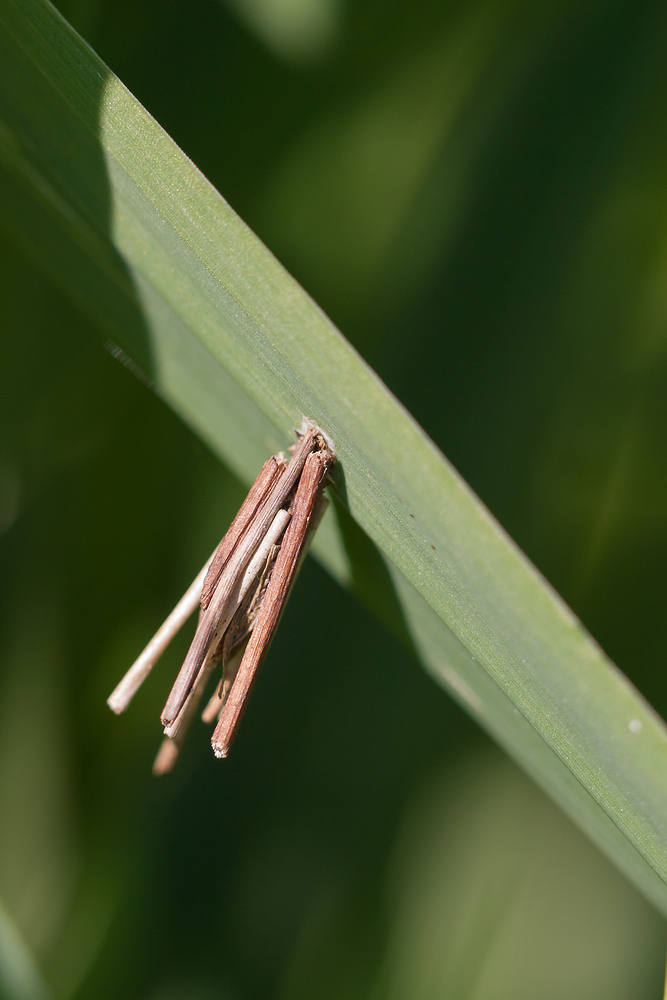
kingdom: Animalia
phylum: Arthropoda
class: Insecta
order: Lepidoptera
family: Psychidae
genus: Psyche
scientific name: Psyche casta
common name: Common sweep
